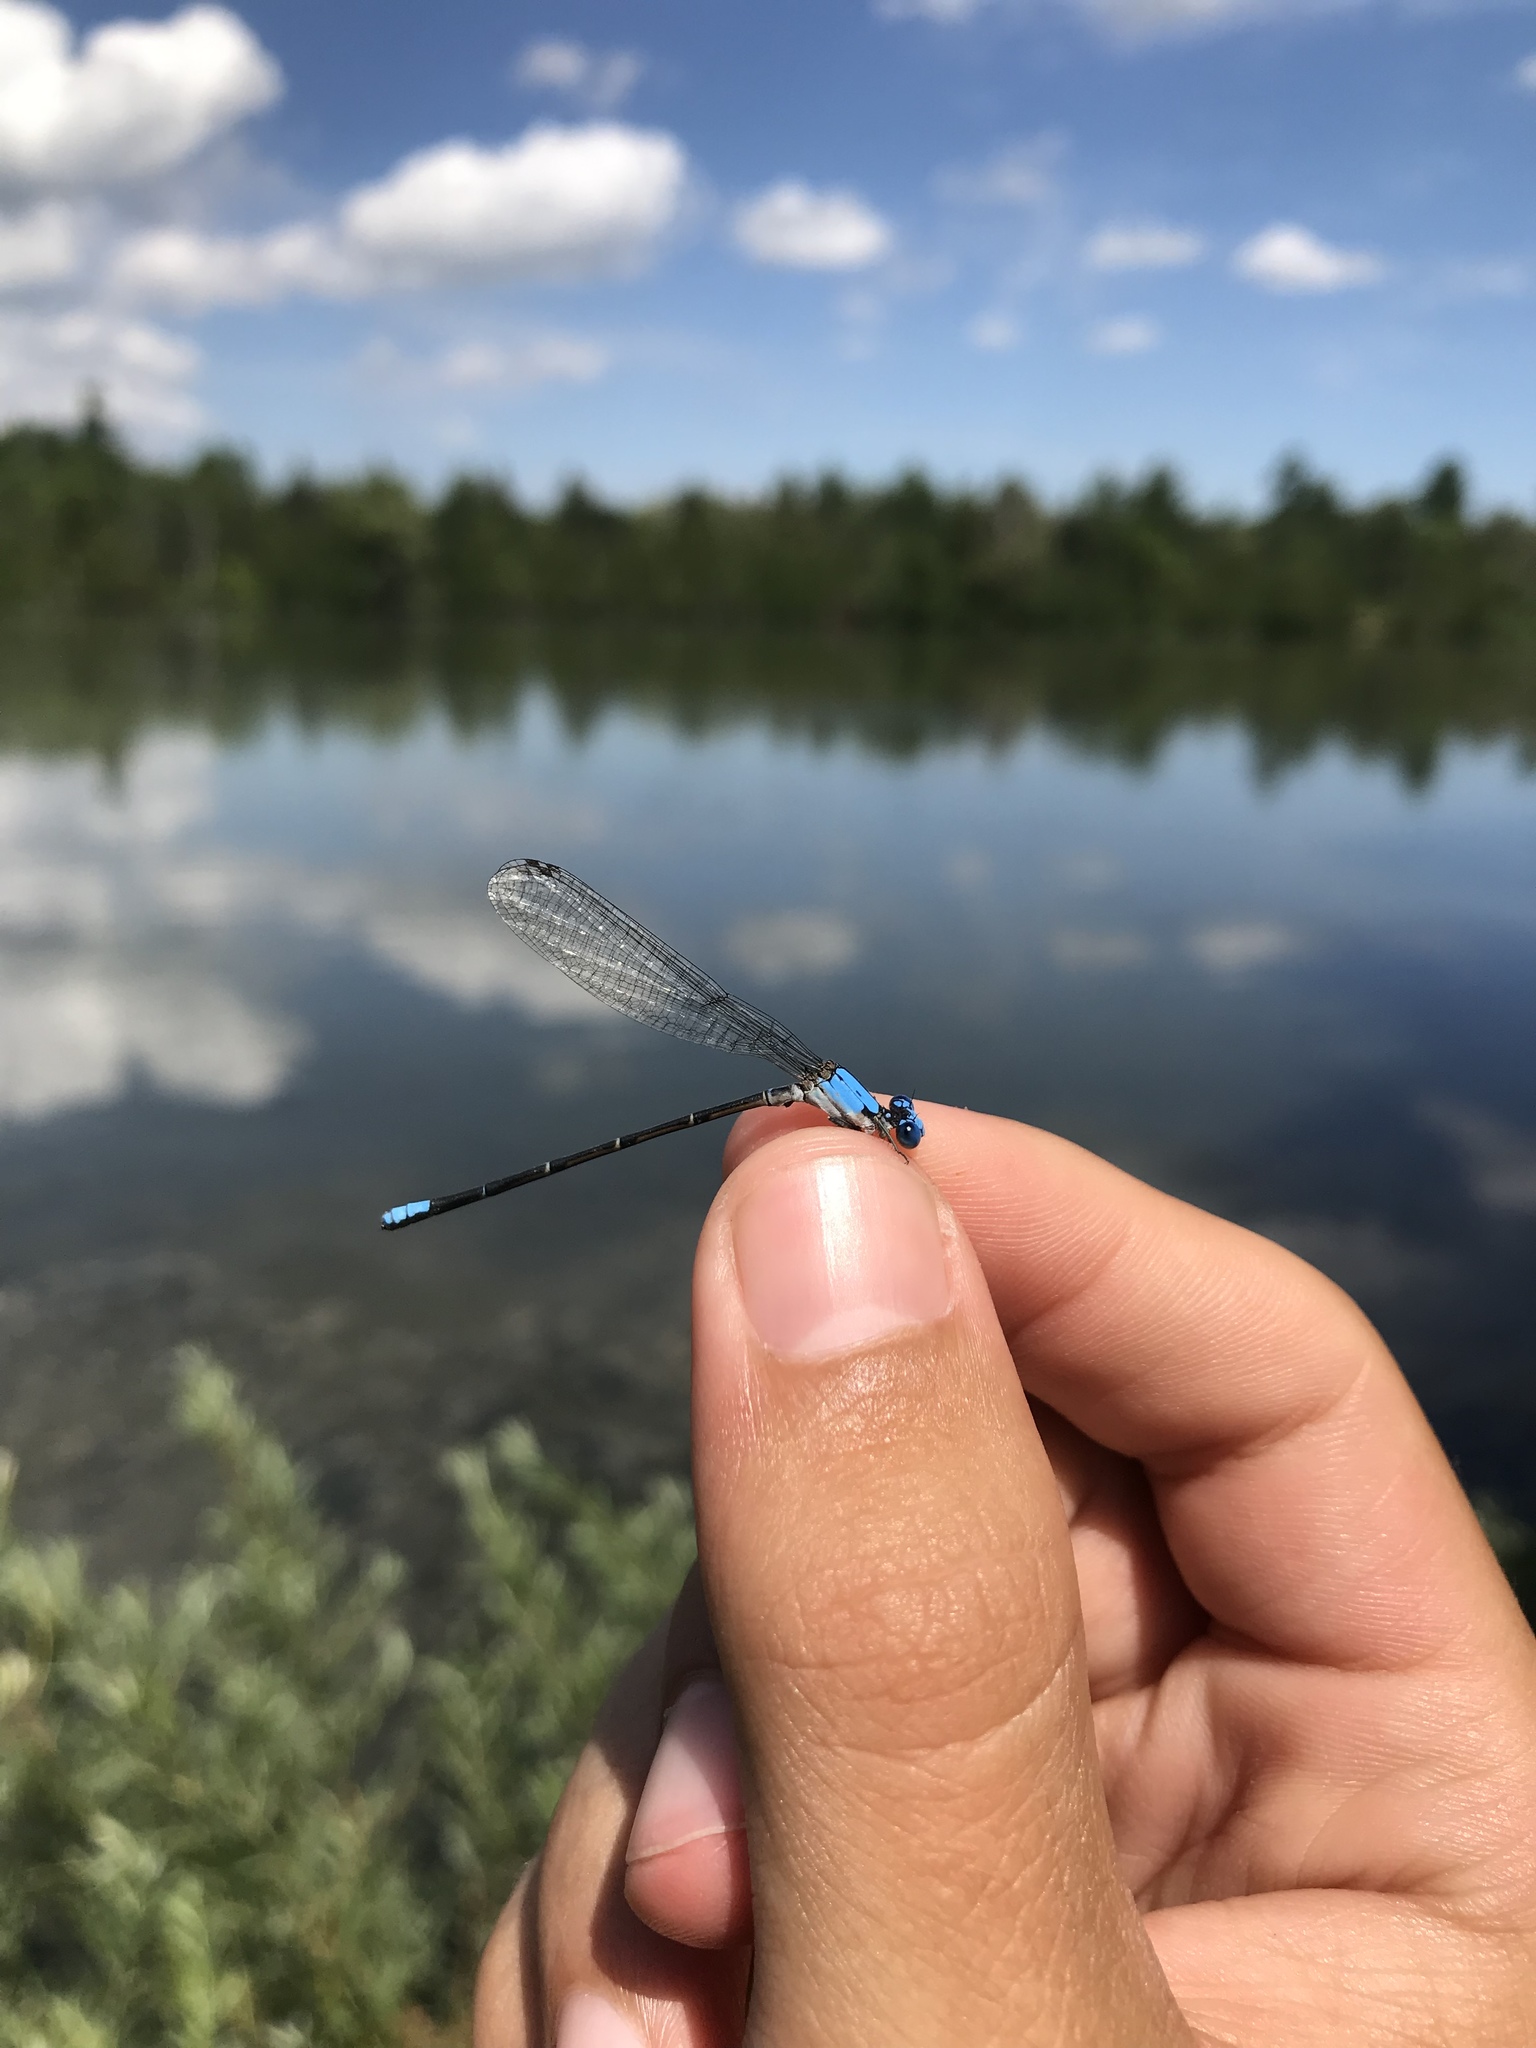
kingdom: Animalia
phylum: Arthropoda
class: Insecta
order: Odonata
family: Coenagrionidae
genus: Argia
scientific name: Argia apicalis
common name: Blue-fronted dancer
